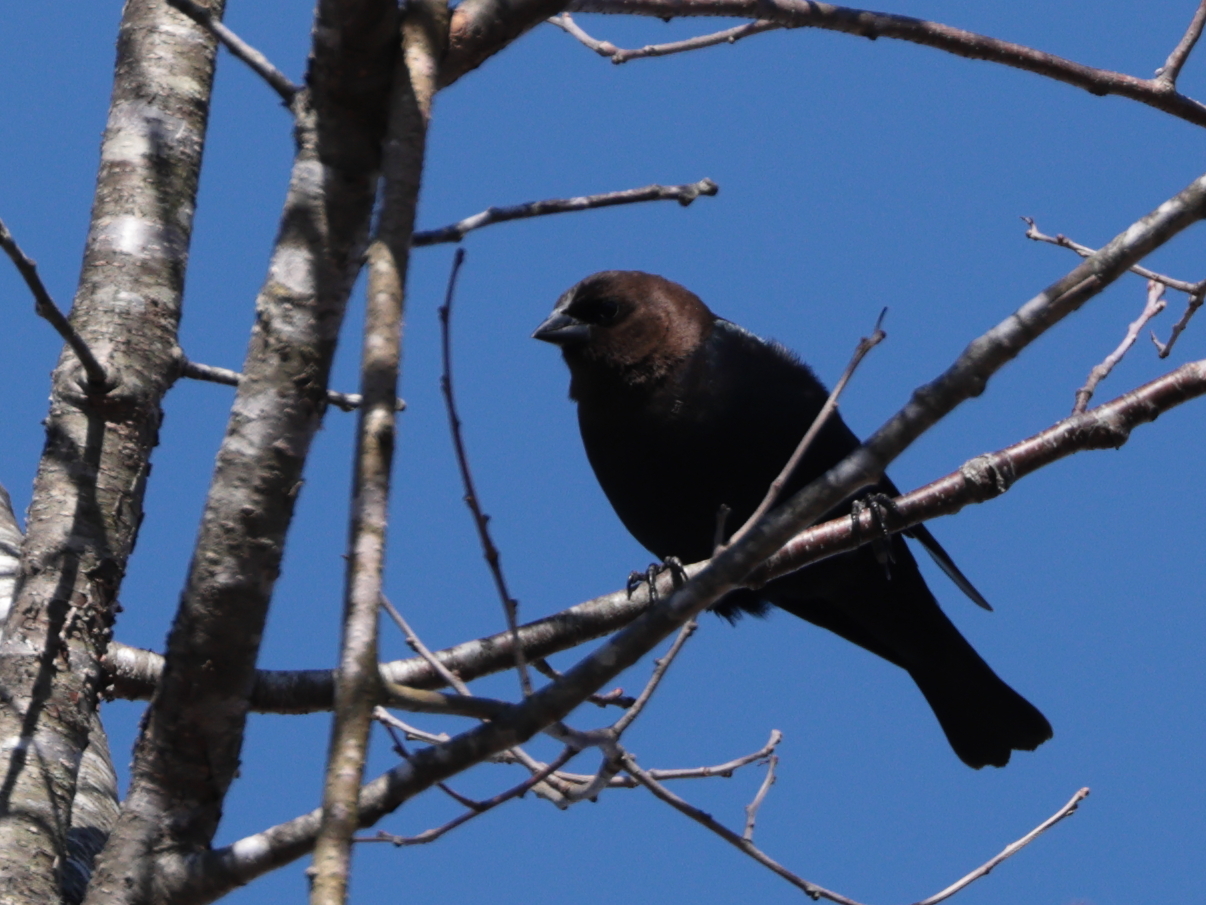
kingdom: Animalia
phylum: Chordata
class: Aves
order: Passeriformes
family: Icteridae
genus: Molothrus
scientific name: Molothrus ater
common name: Brown-headed cowbird
